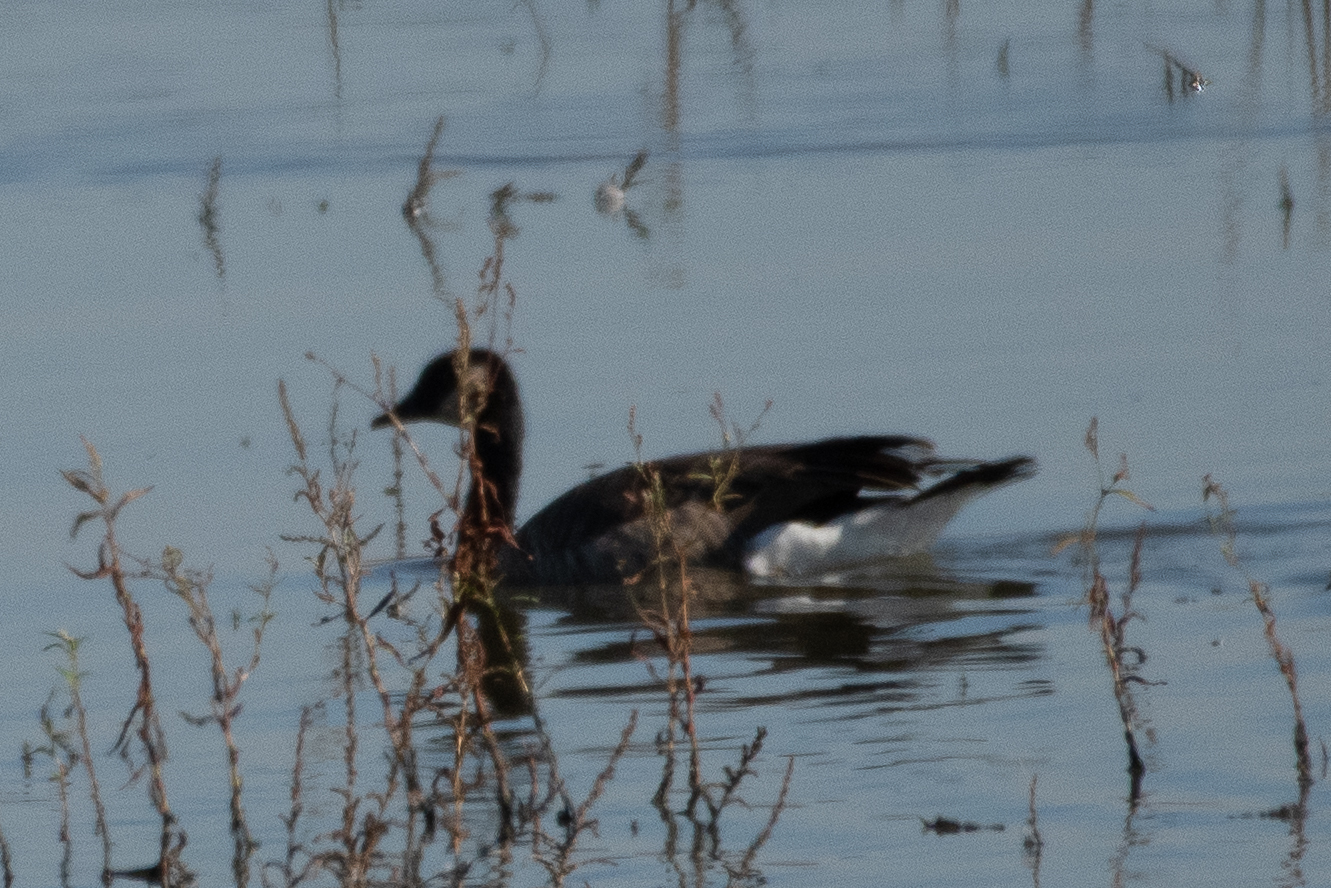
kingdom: Animalia
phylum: Chordata
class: Aves
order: Anseriformes
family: Anatidae
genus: Branta
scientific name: Branta canadensis
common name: Canada goose
